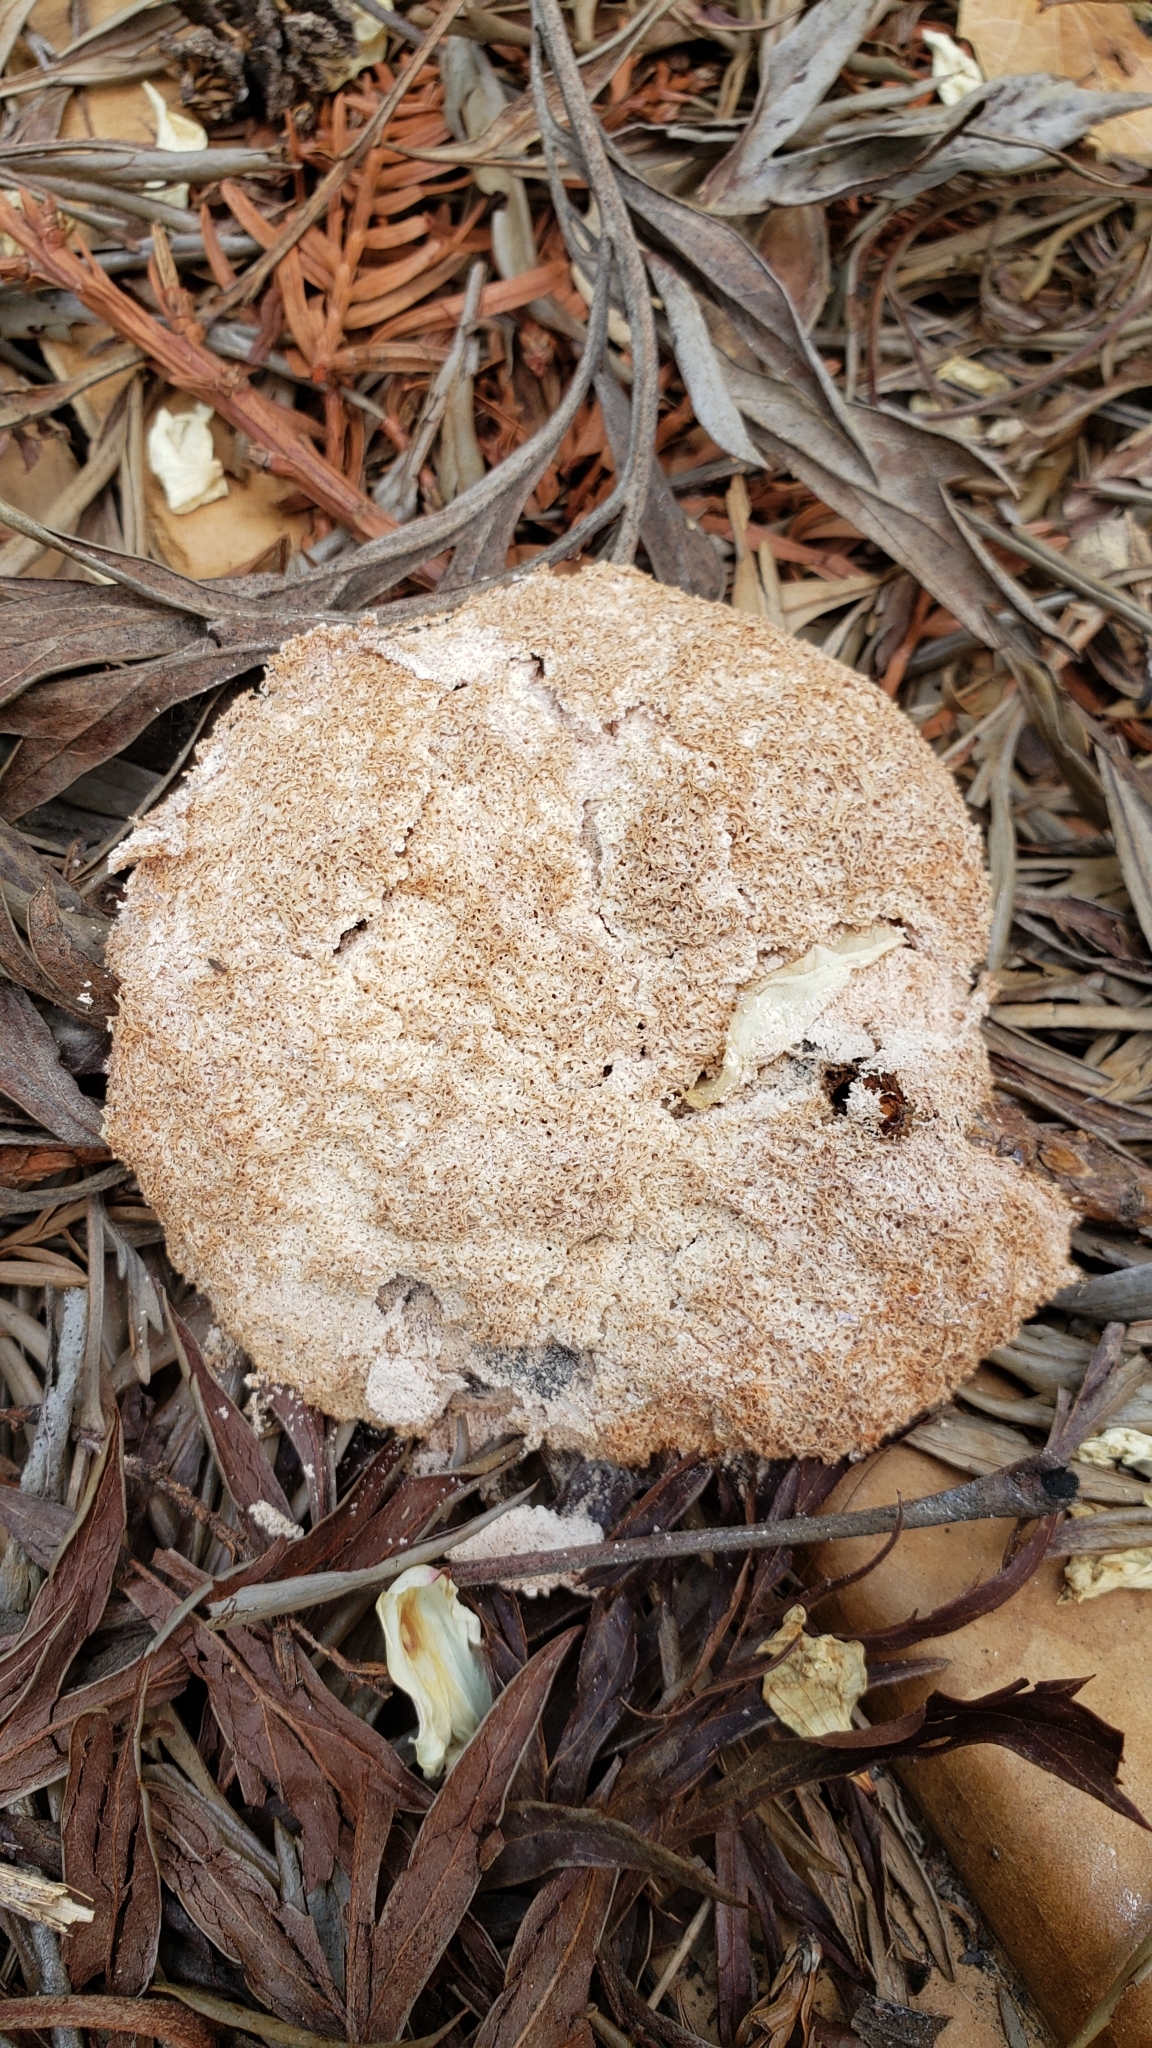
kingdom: Protozoa
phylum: Mycetozoa
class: Myxomycetes
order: Physarales
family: Physaraceae
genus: Fuligo
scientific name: Fuligo septica
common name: Dog vomit slime mold
